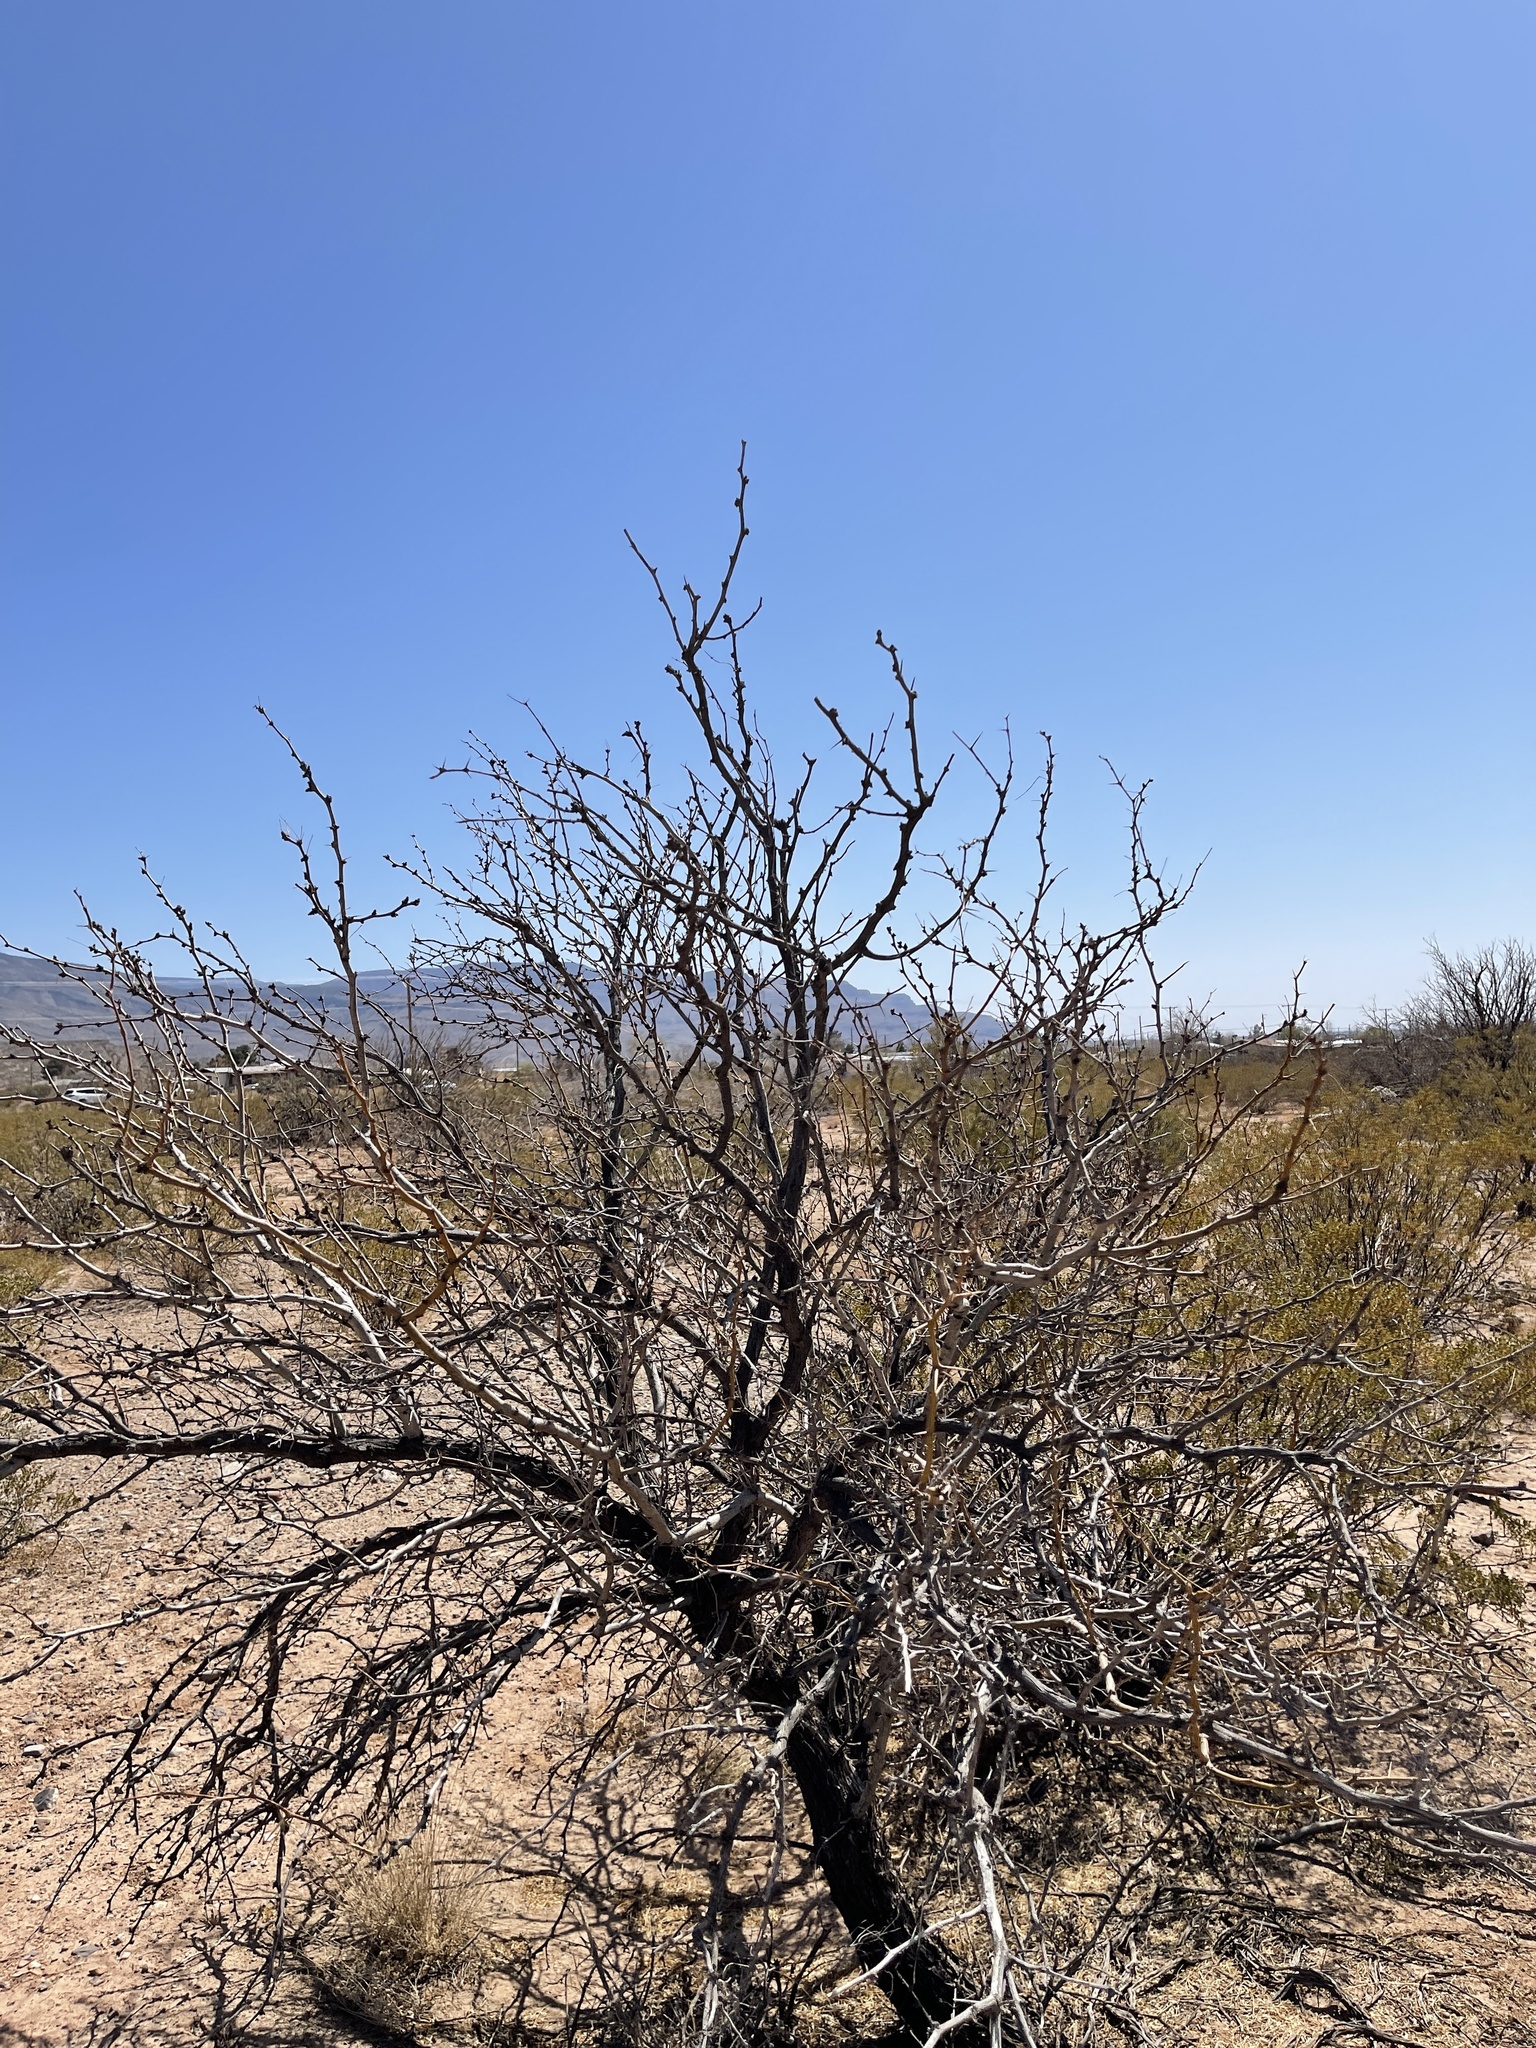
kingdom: Plantae
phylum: Tracheophyta
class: Magnoliopsida
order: Fabales
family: Fabaceae
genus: Prosopis
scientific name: Prosopis glandulosa
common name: Honey mesquite
